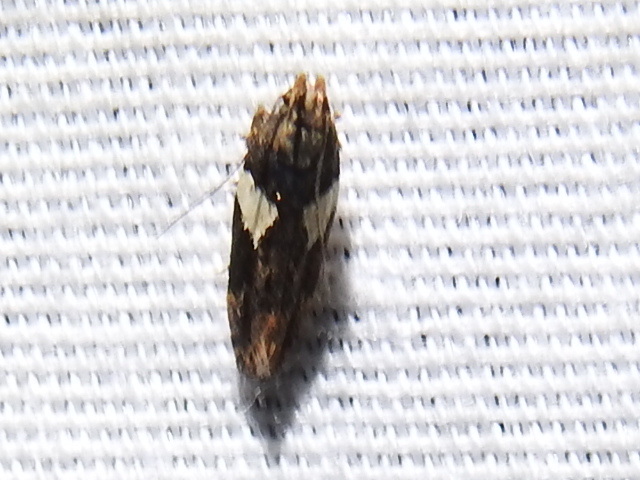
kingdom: Animalia
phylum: Arthropoda
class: Insecta
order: Lepidoptera
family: Gelechiidae
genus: Friseria
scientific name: Friseria acaciella
